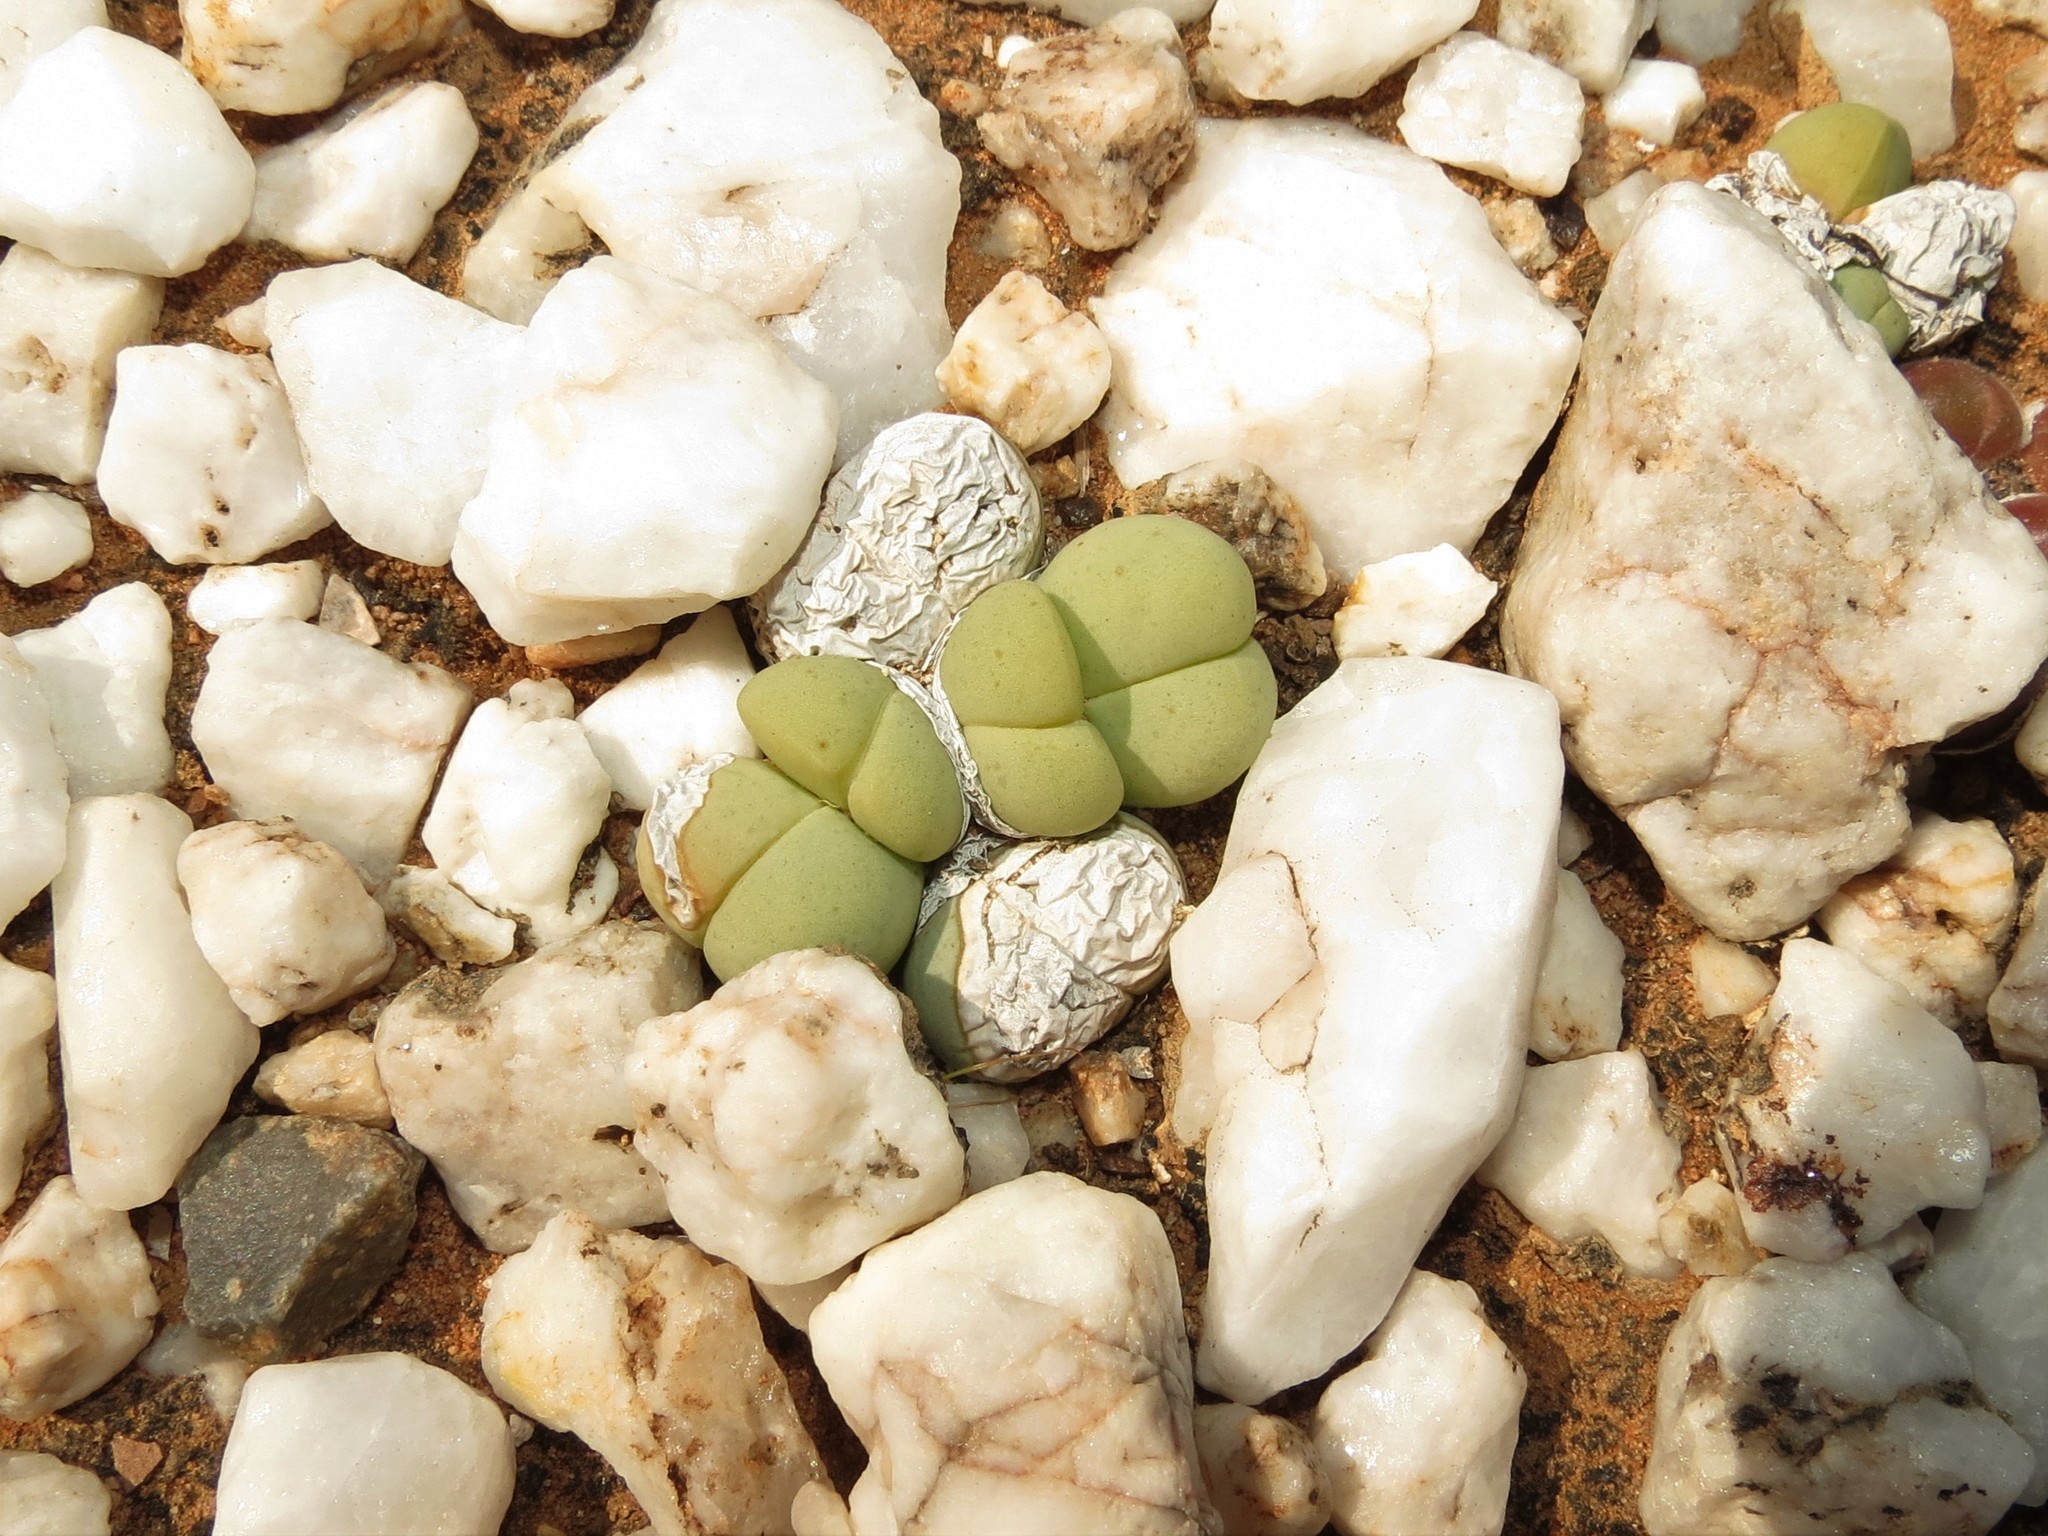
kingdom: Plantae
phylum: Tracheophyta
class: Magnoliopsida
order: Caryophyllales
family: Aizoaceae
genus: Gibbaeum
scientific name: Gibbaeum heathii
